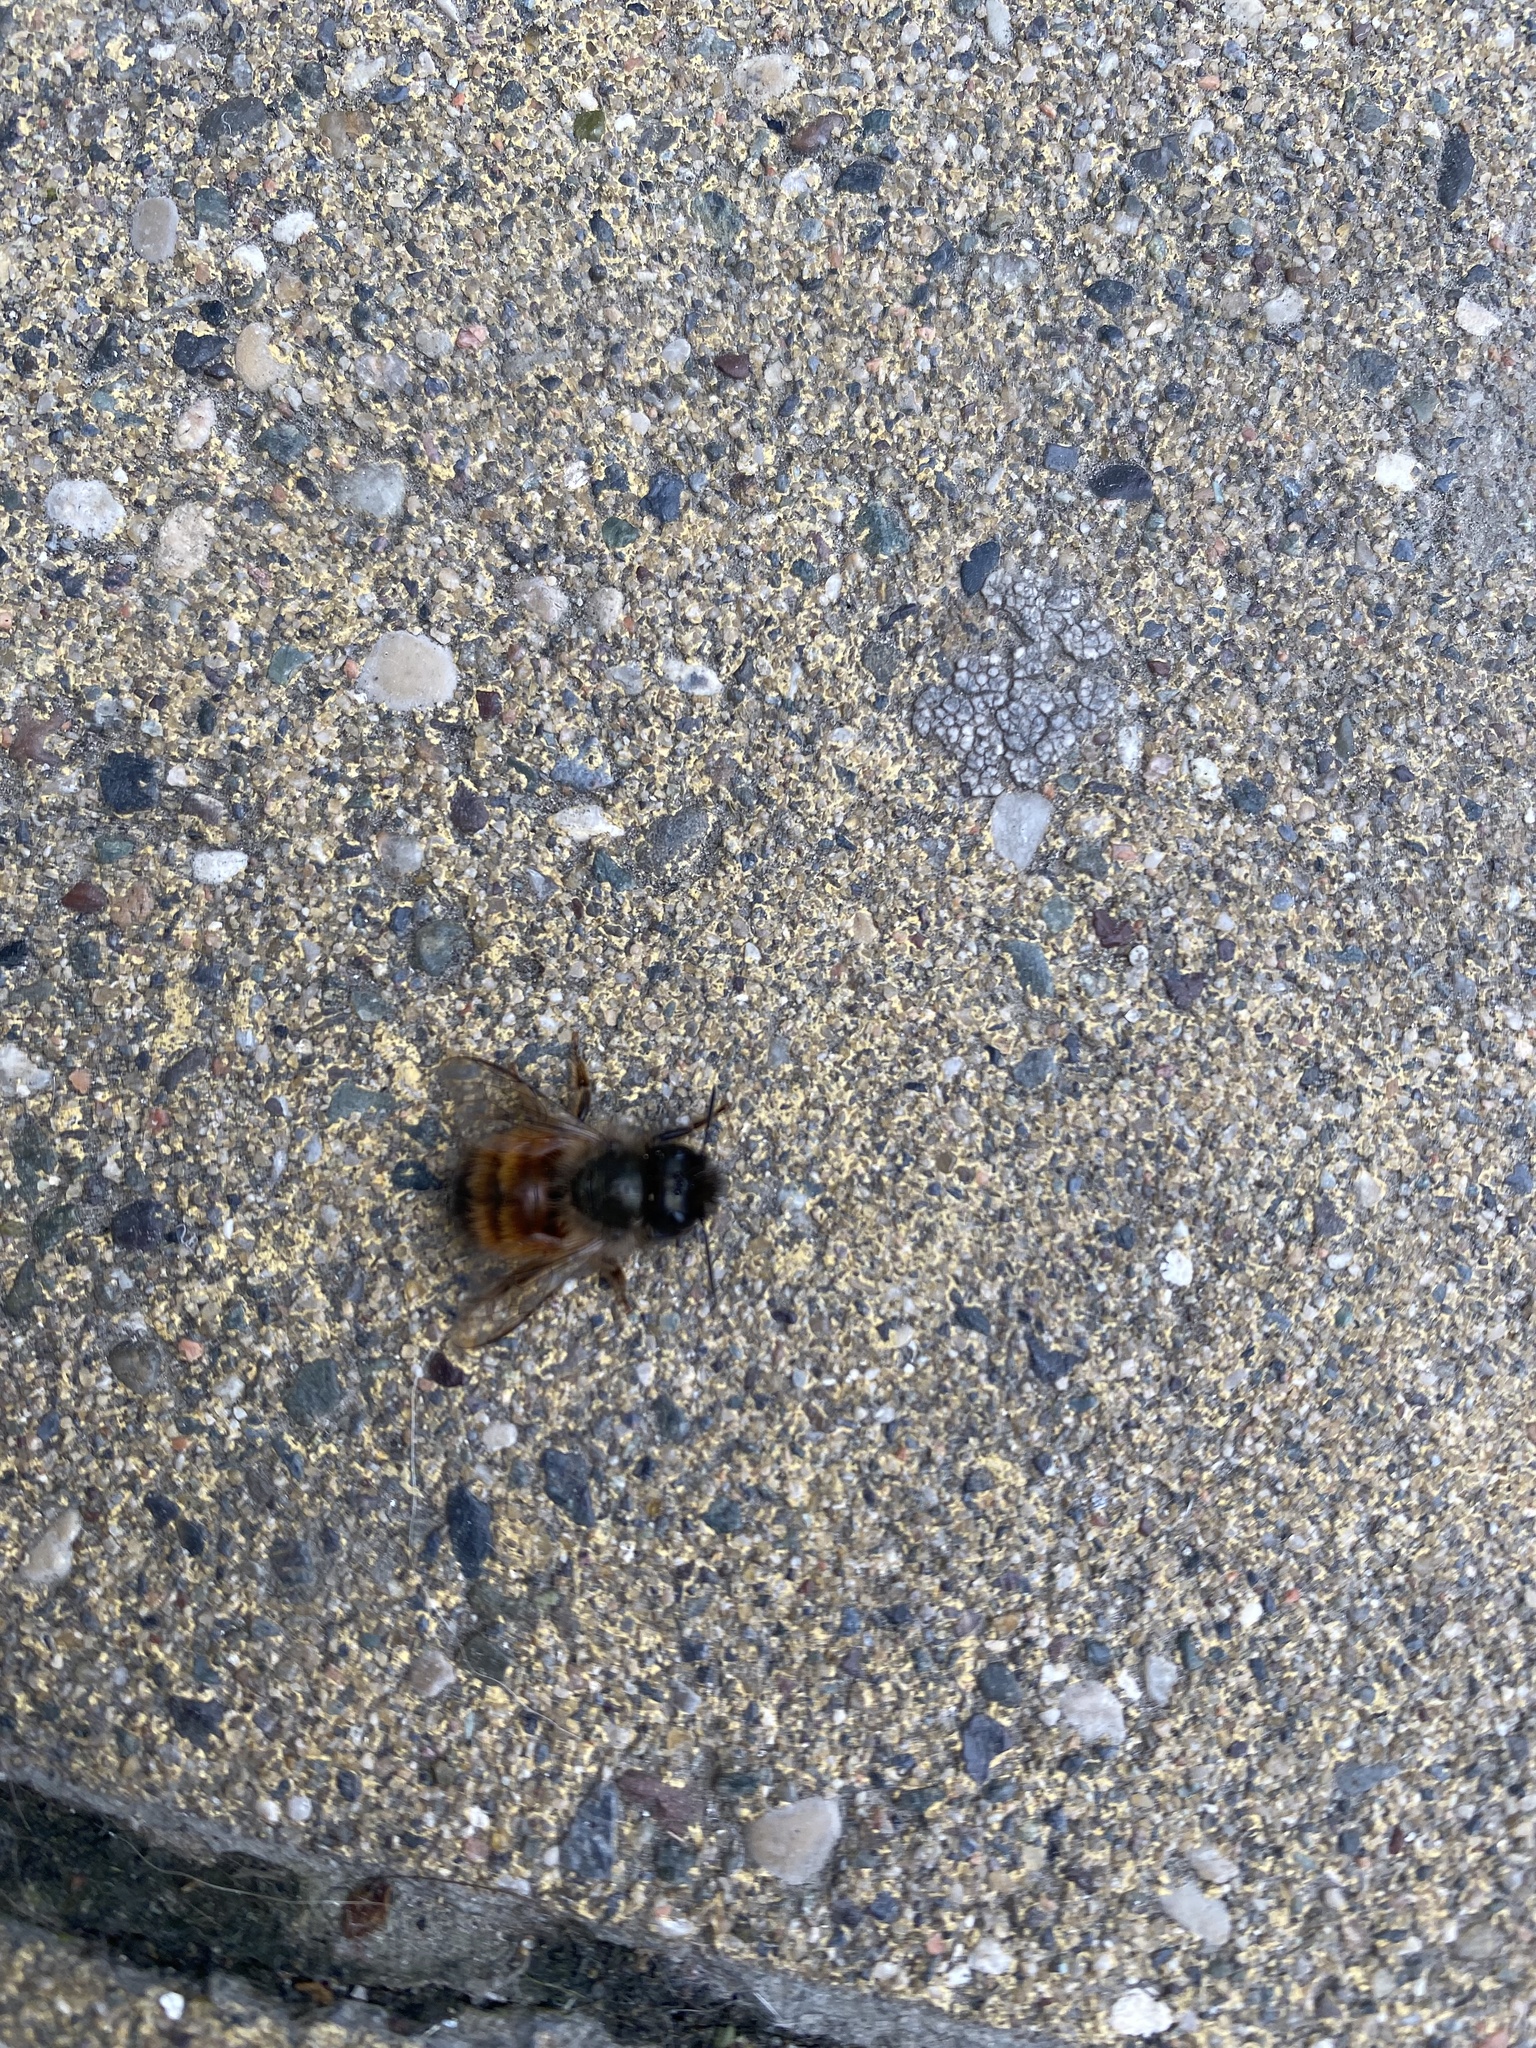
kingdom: Animalia
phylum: Arthropoda
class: Insecta
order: Hymenoptera
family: Megachilidae
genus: Osmia
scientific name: Osmia bicornis
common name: Red mason bee
